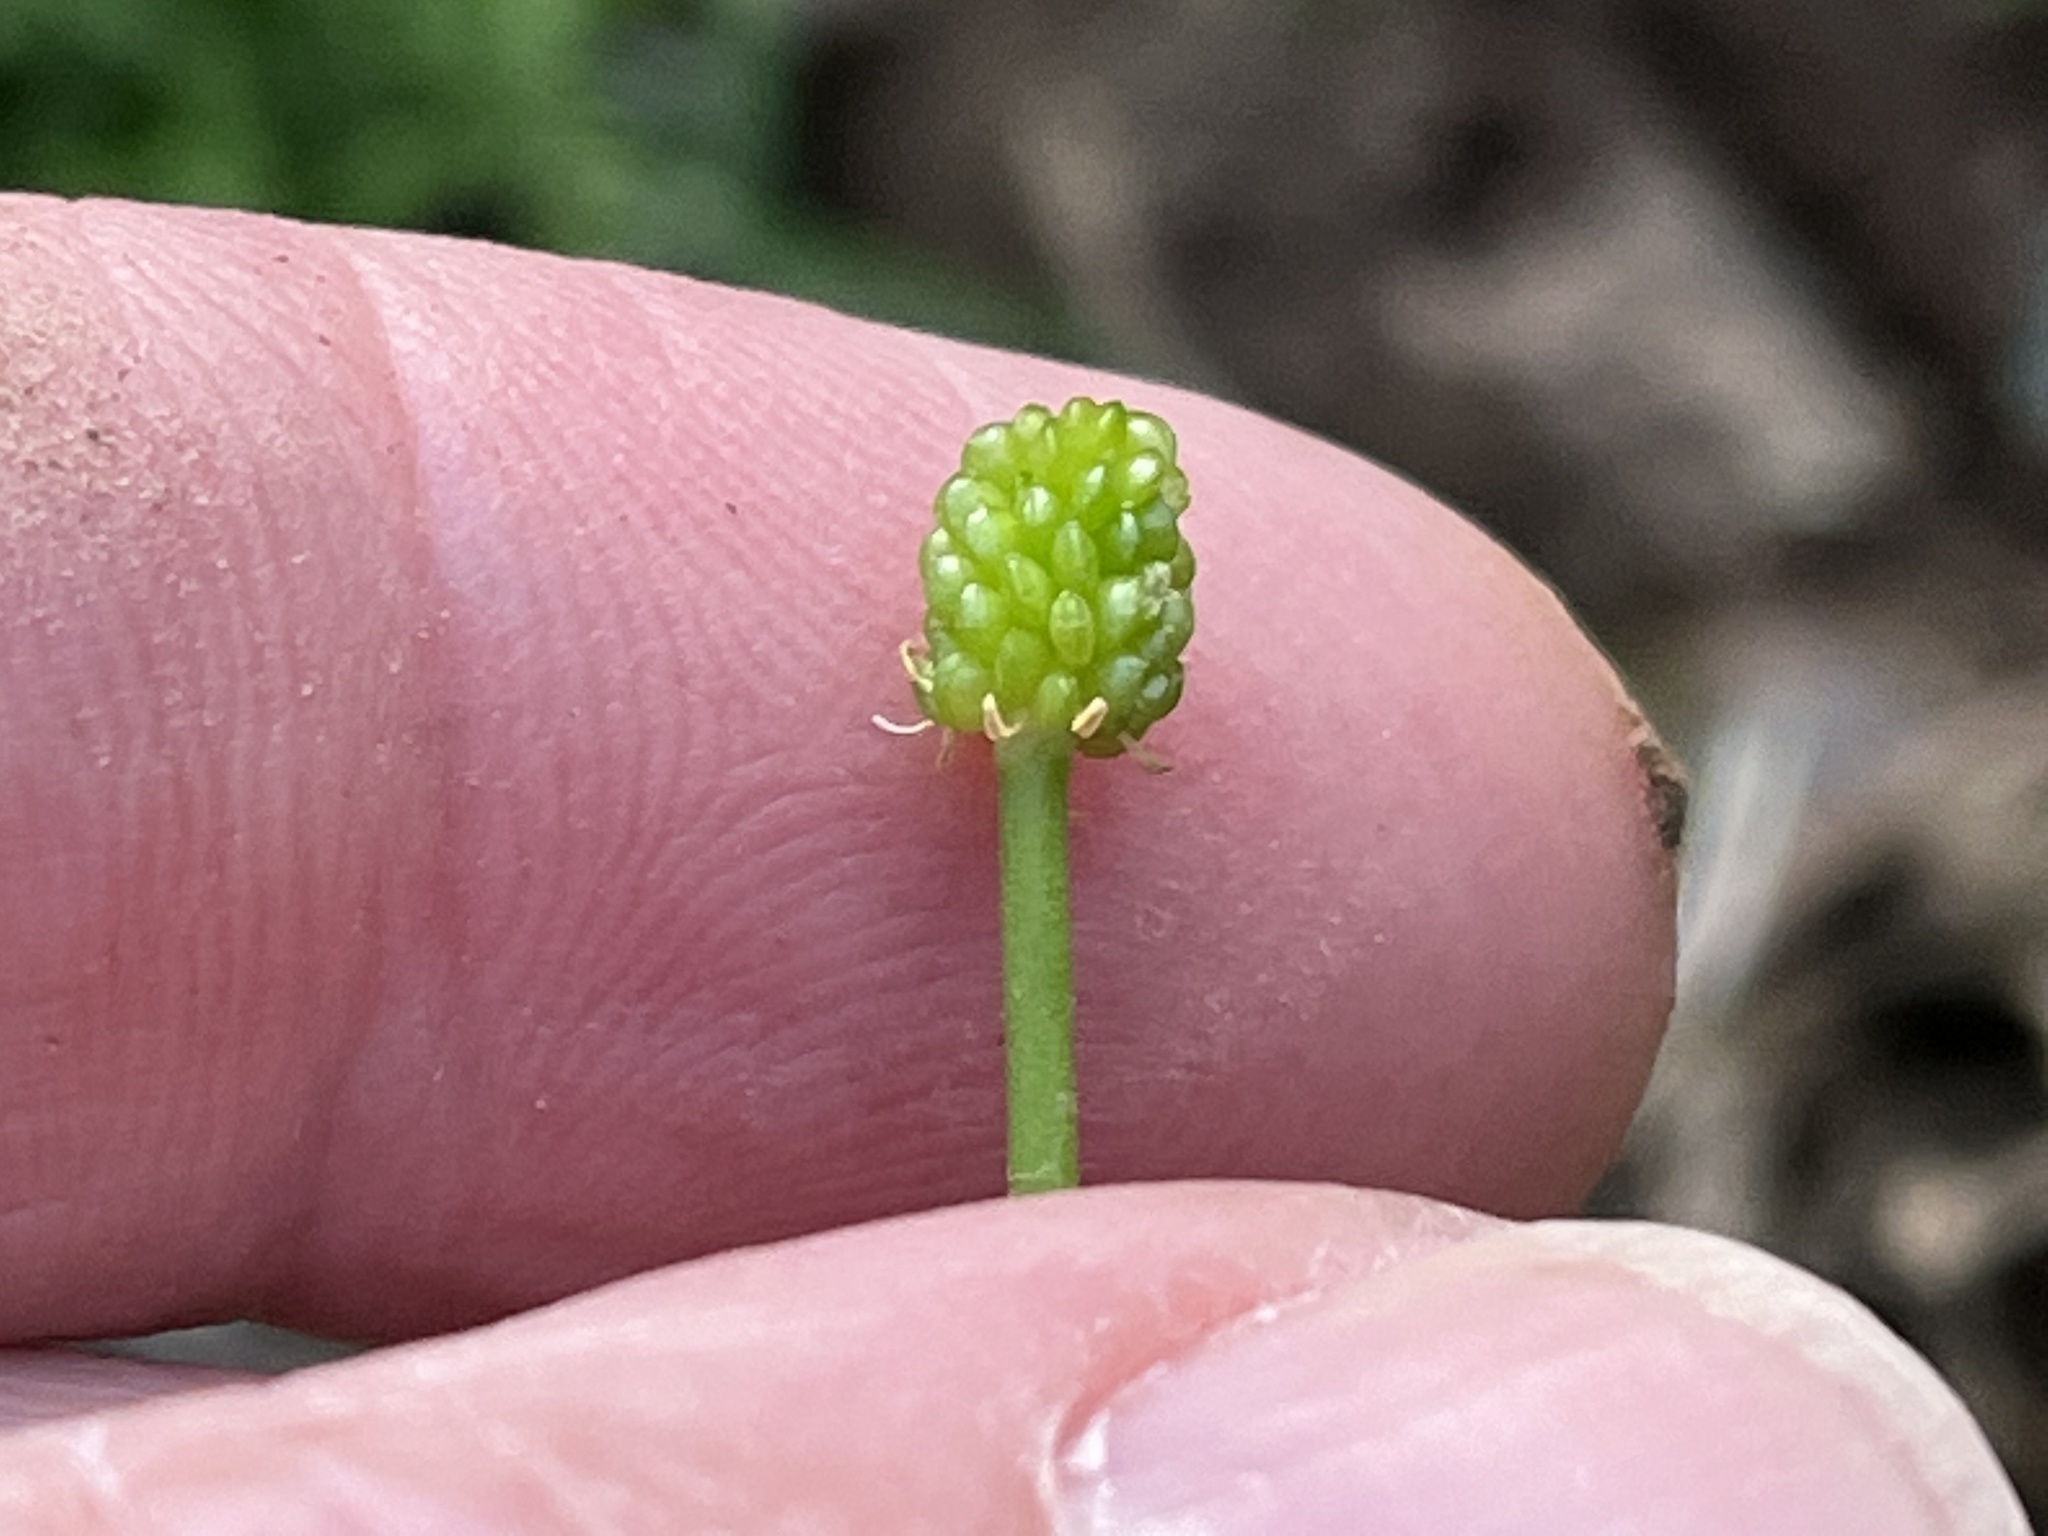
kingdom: Plantae
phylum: Tracheophyta
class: Magnoliopsida
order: Ranunculales
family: Ranunculaceae
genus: Ranunculus
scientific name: Ranunculus abortivus
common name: Early wood buttercup
